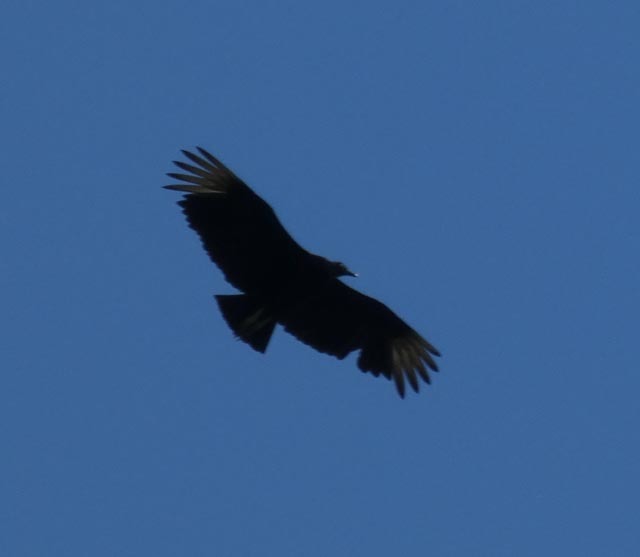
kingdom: Animalia
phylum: Chordata
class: Aves
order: Accipitriformes
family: Cathartidae
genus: Coragyps
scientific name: Coragyps atratus
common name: Black vulture
